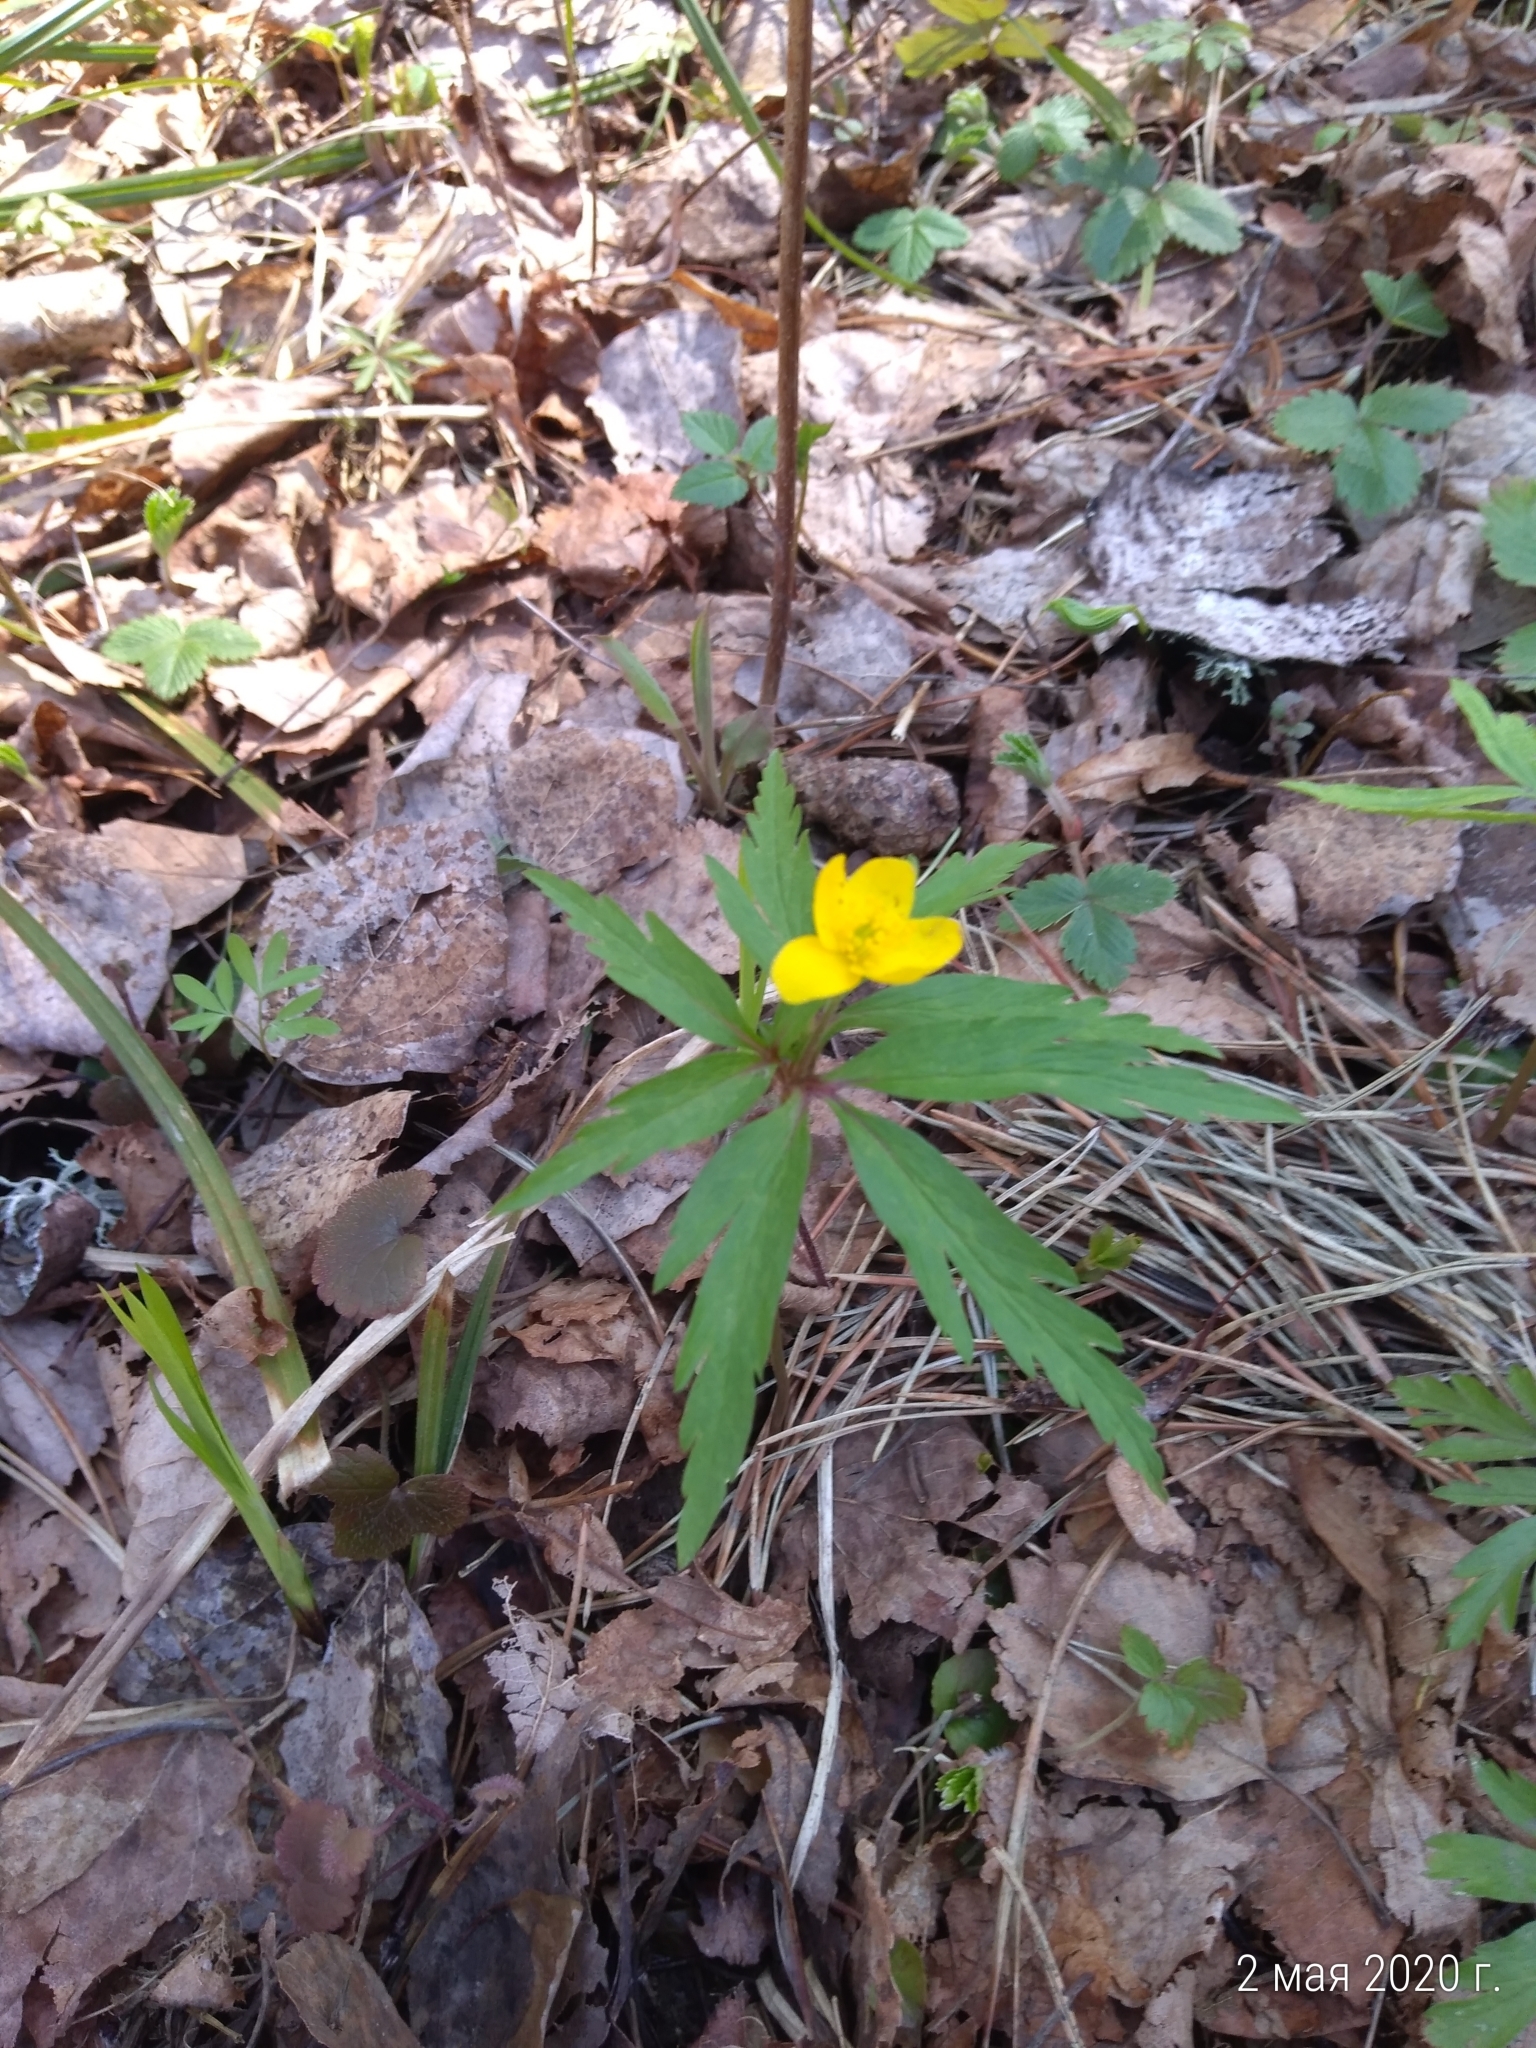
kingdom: Plantae
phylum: Tracheophyta
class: Magnoliopsida
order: Ranunculales
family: Ranunculaceae
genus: Anemone
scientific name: Anemone ranunculoides
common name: Yellow anemone
